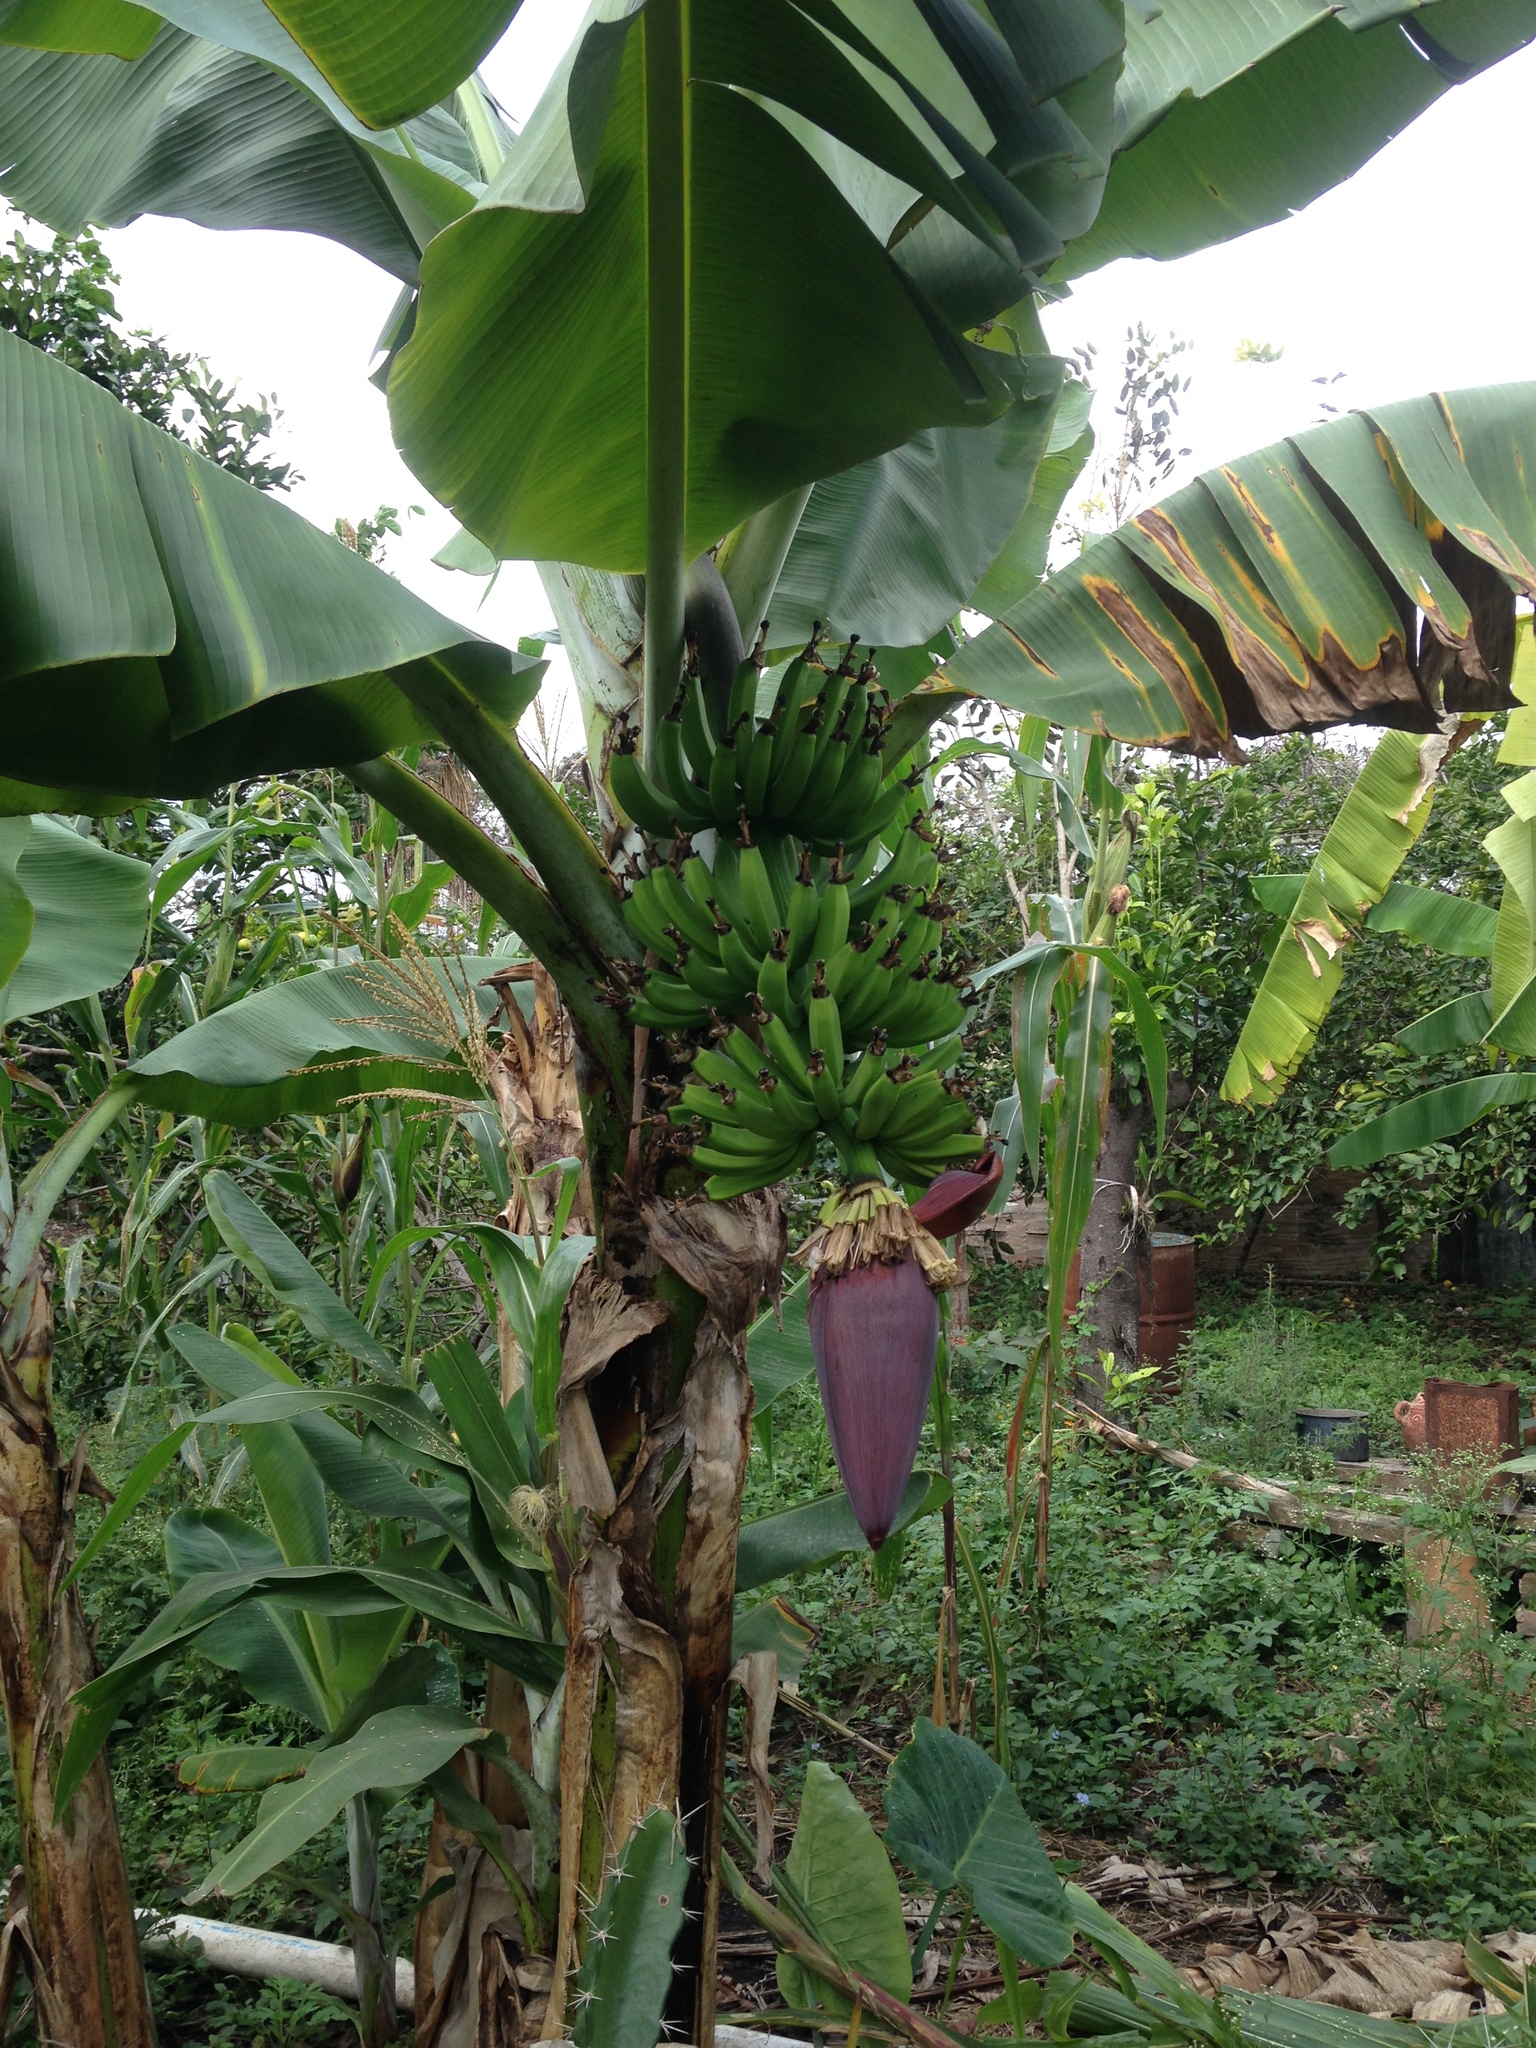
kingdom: Plantae
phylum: Tracheophyta
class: Liliopsida
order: Zingiberales
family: Musaceae
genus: Musa
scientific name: Musa acuminata
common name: Edible banana
